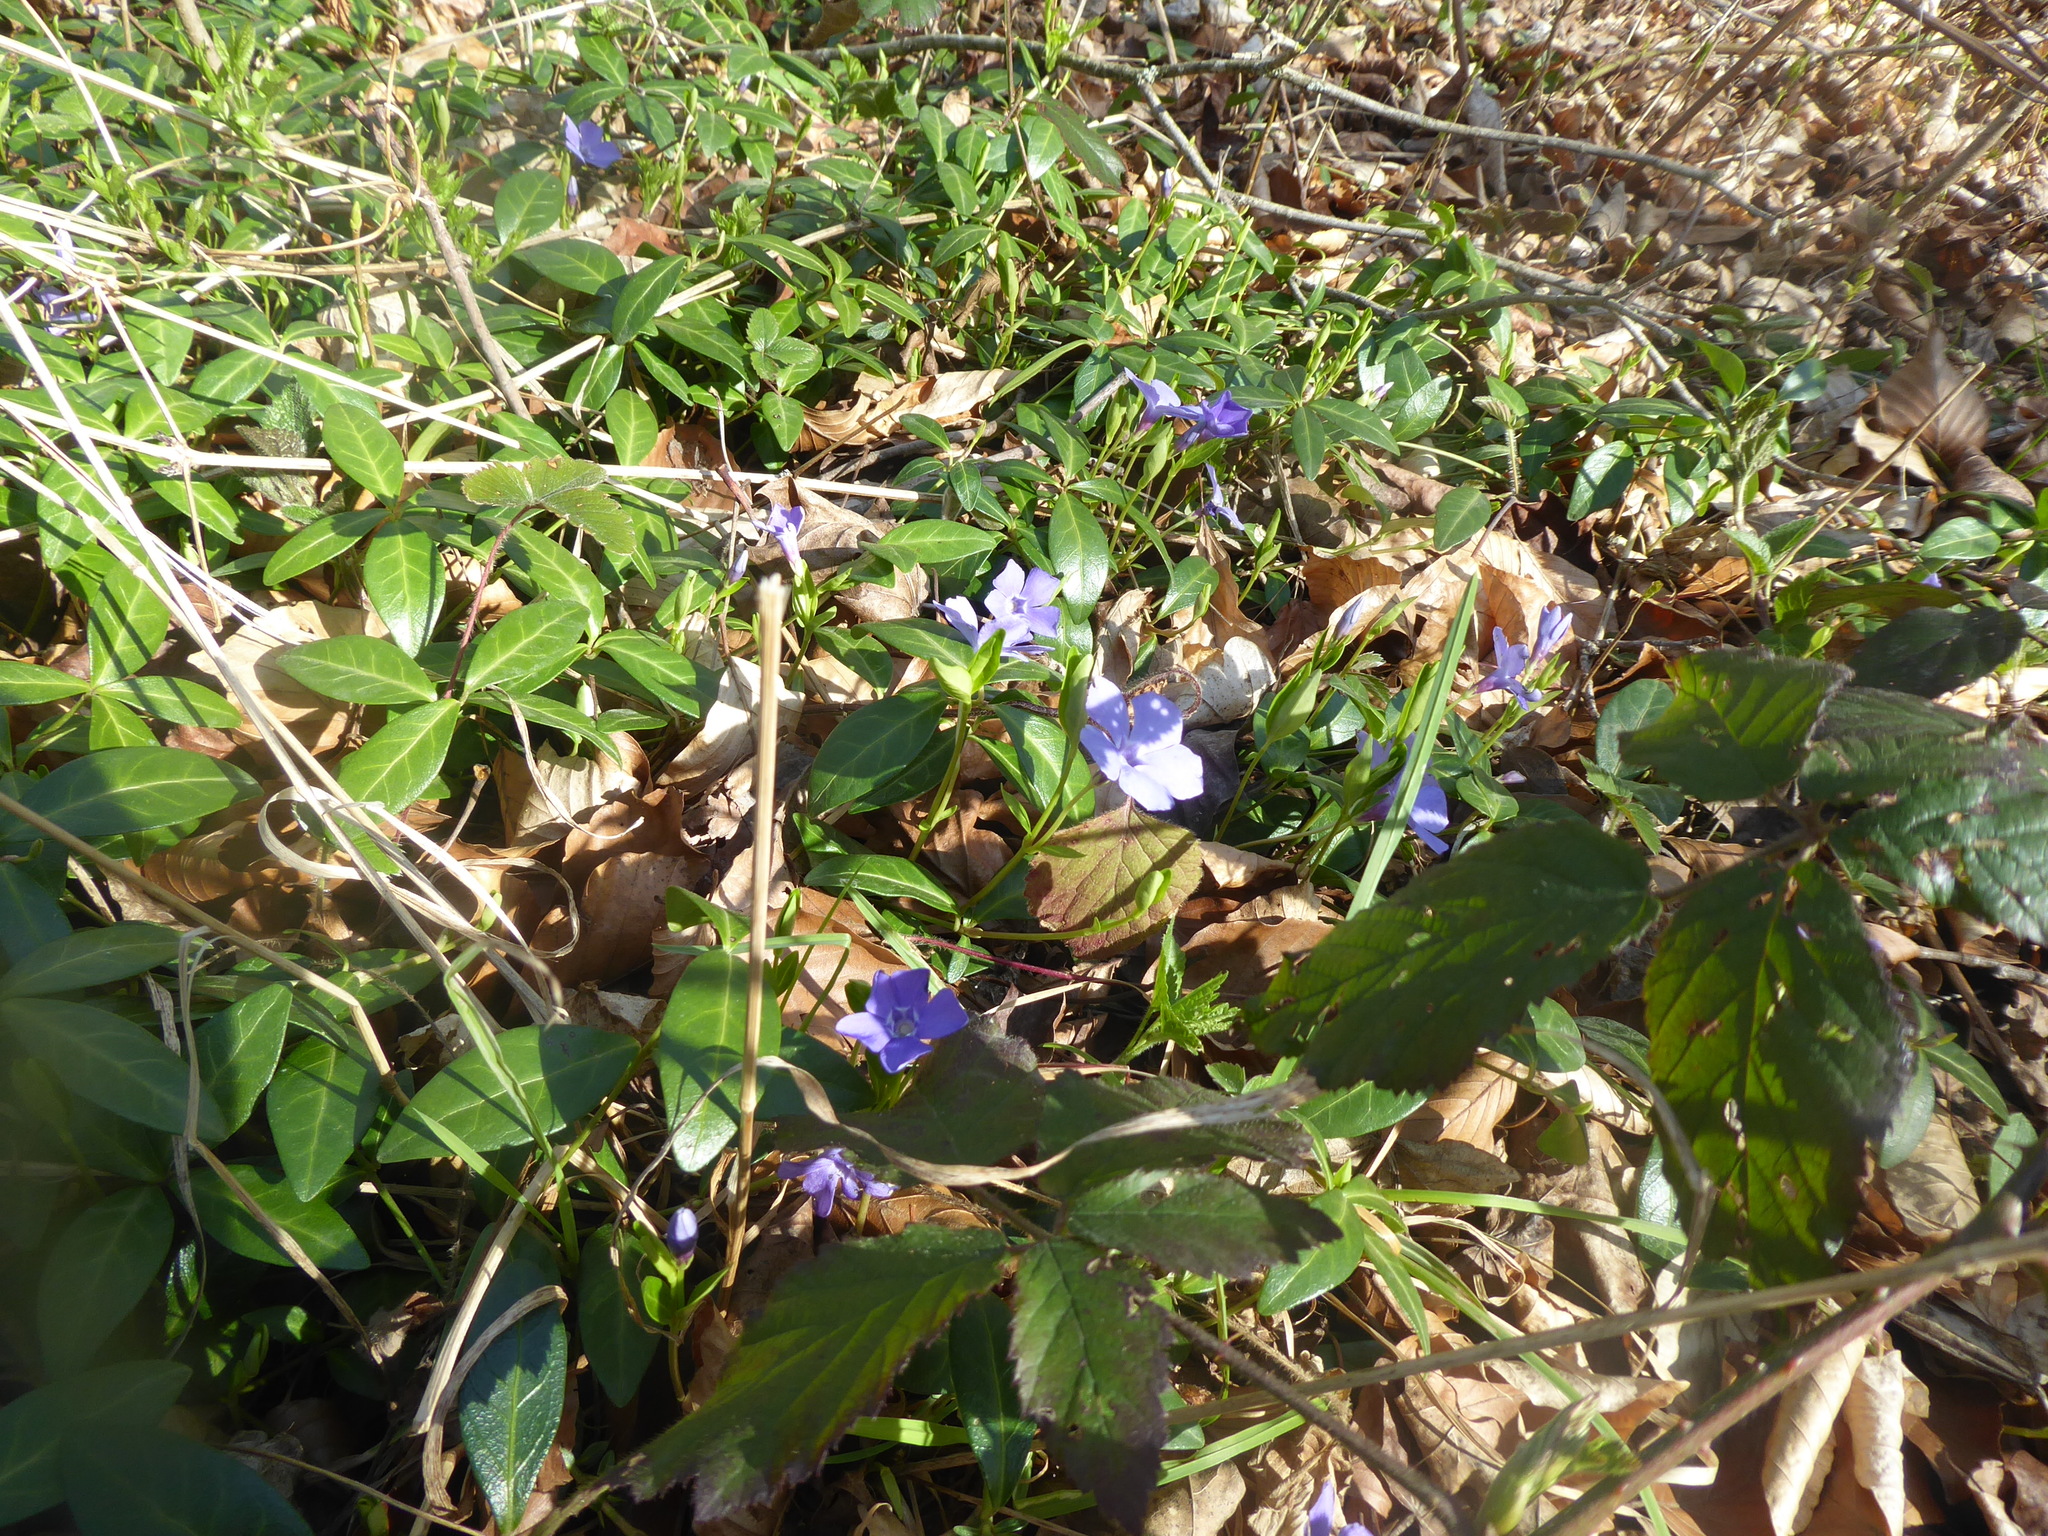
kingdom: Plantae
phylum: Tracheophyta
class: Magnoliopsida
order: Gentianales
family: Apocynaceae
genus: Vinca
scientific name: Vinca minor
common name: Lesser periwinkle
